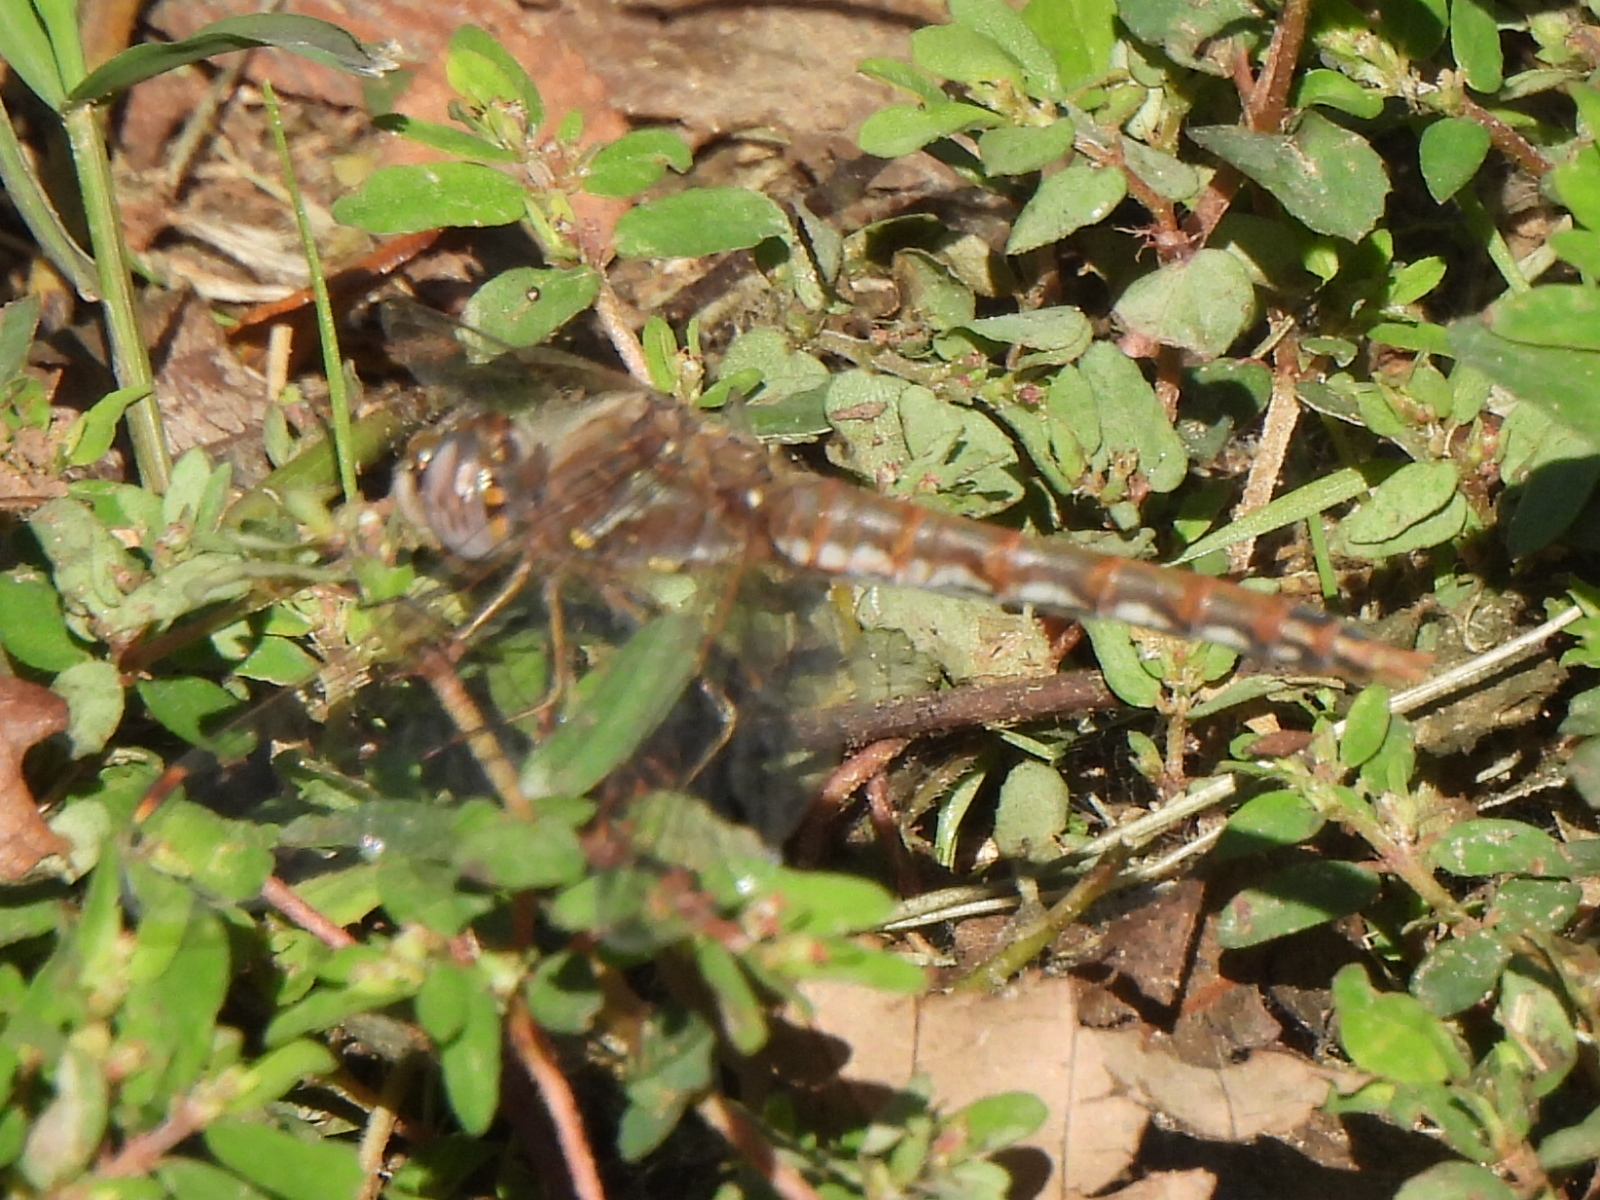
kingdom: Animalia
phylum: Arthropoda
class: Insecta
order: Odonata
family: Libellulidae
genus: Sympetrum
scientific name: Sympetrum corruptum
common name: Variegated meadowhawk
